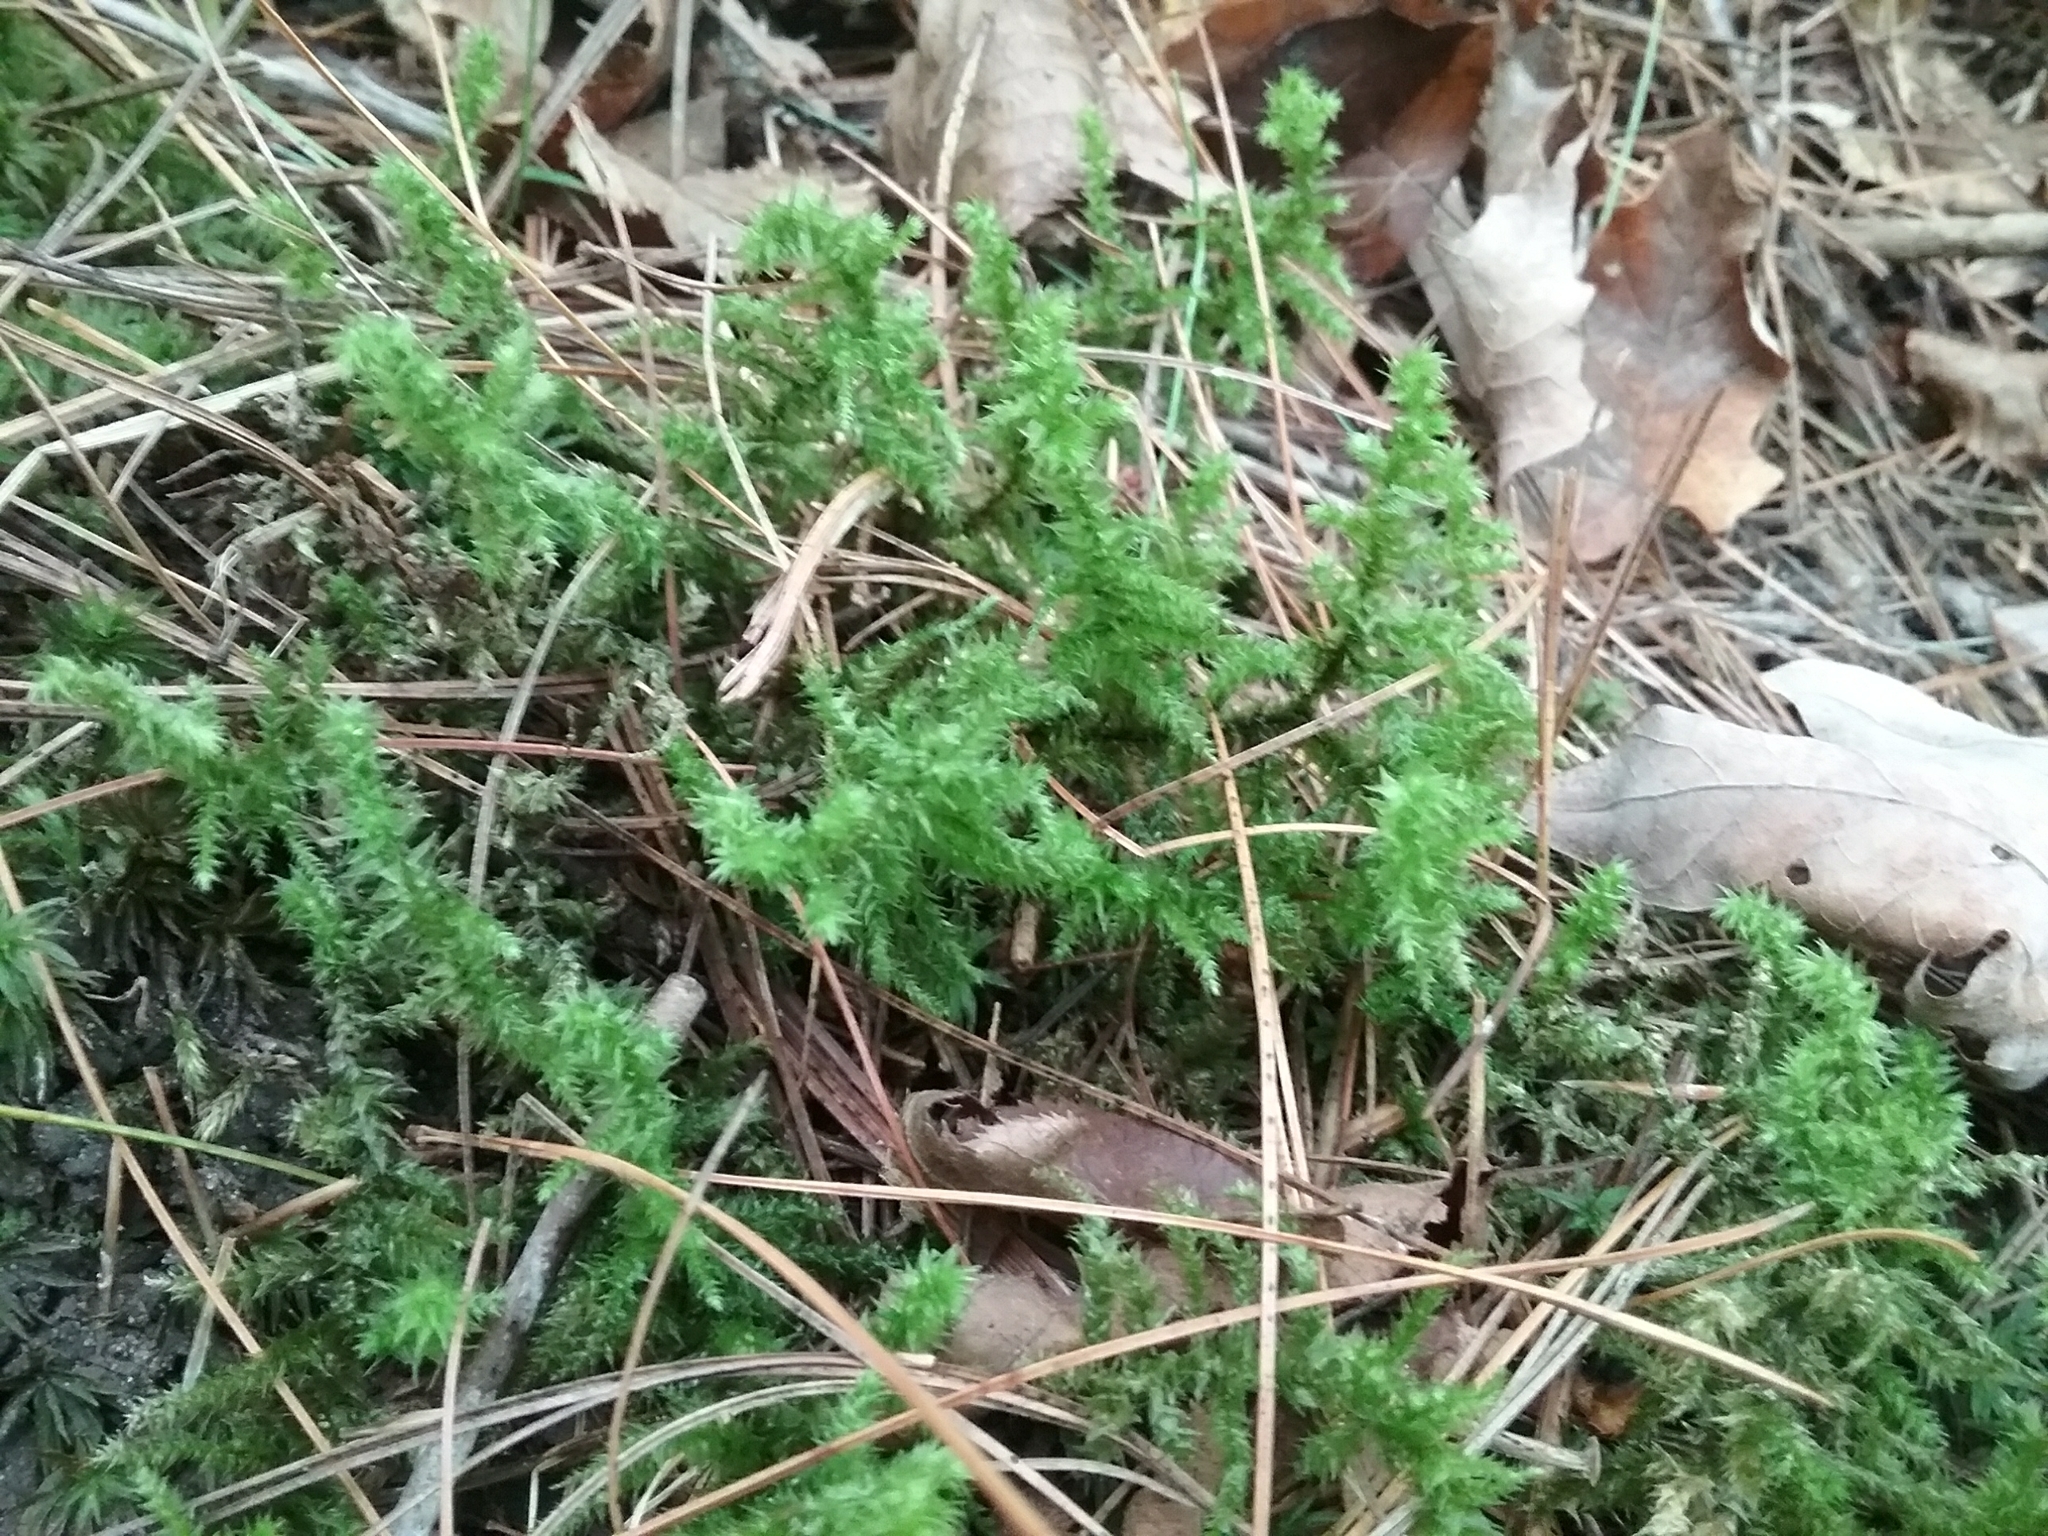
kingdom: Plantae
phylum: Bryophyta
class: Bryopsida
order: Hypnales
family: Hylocomiaceae
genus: Hylocomiadelphus
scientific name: Hylocomiadelphus triquetrus
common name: Rough goose neck moss
